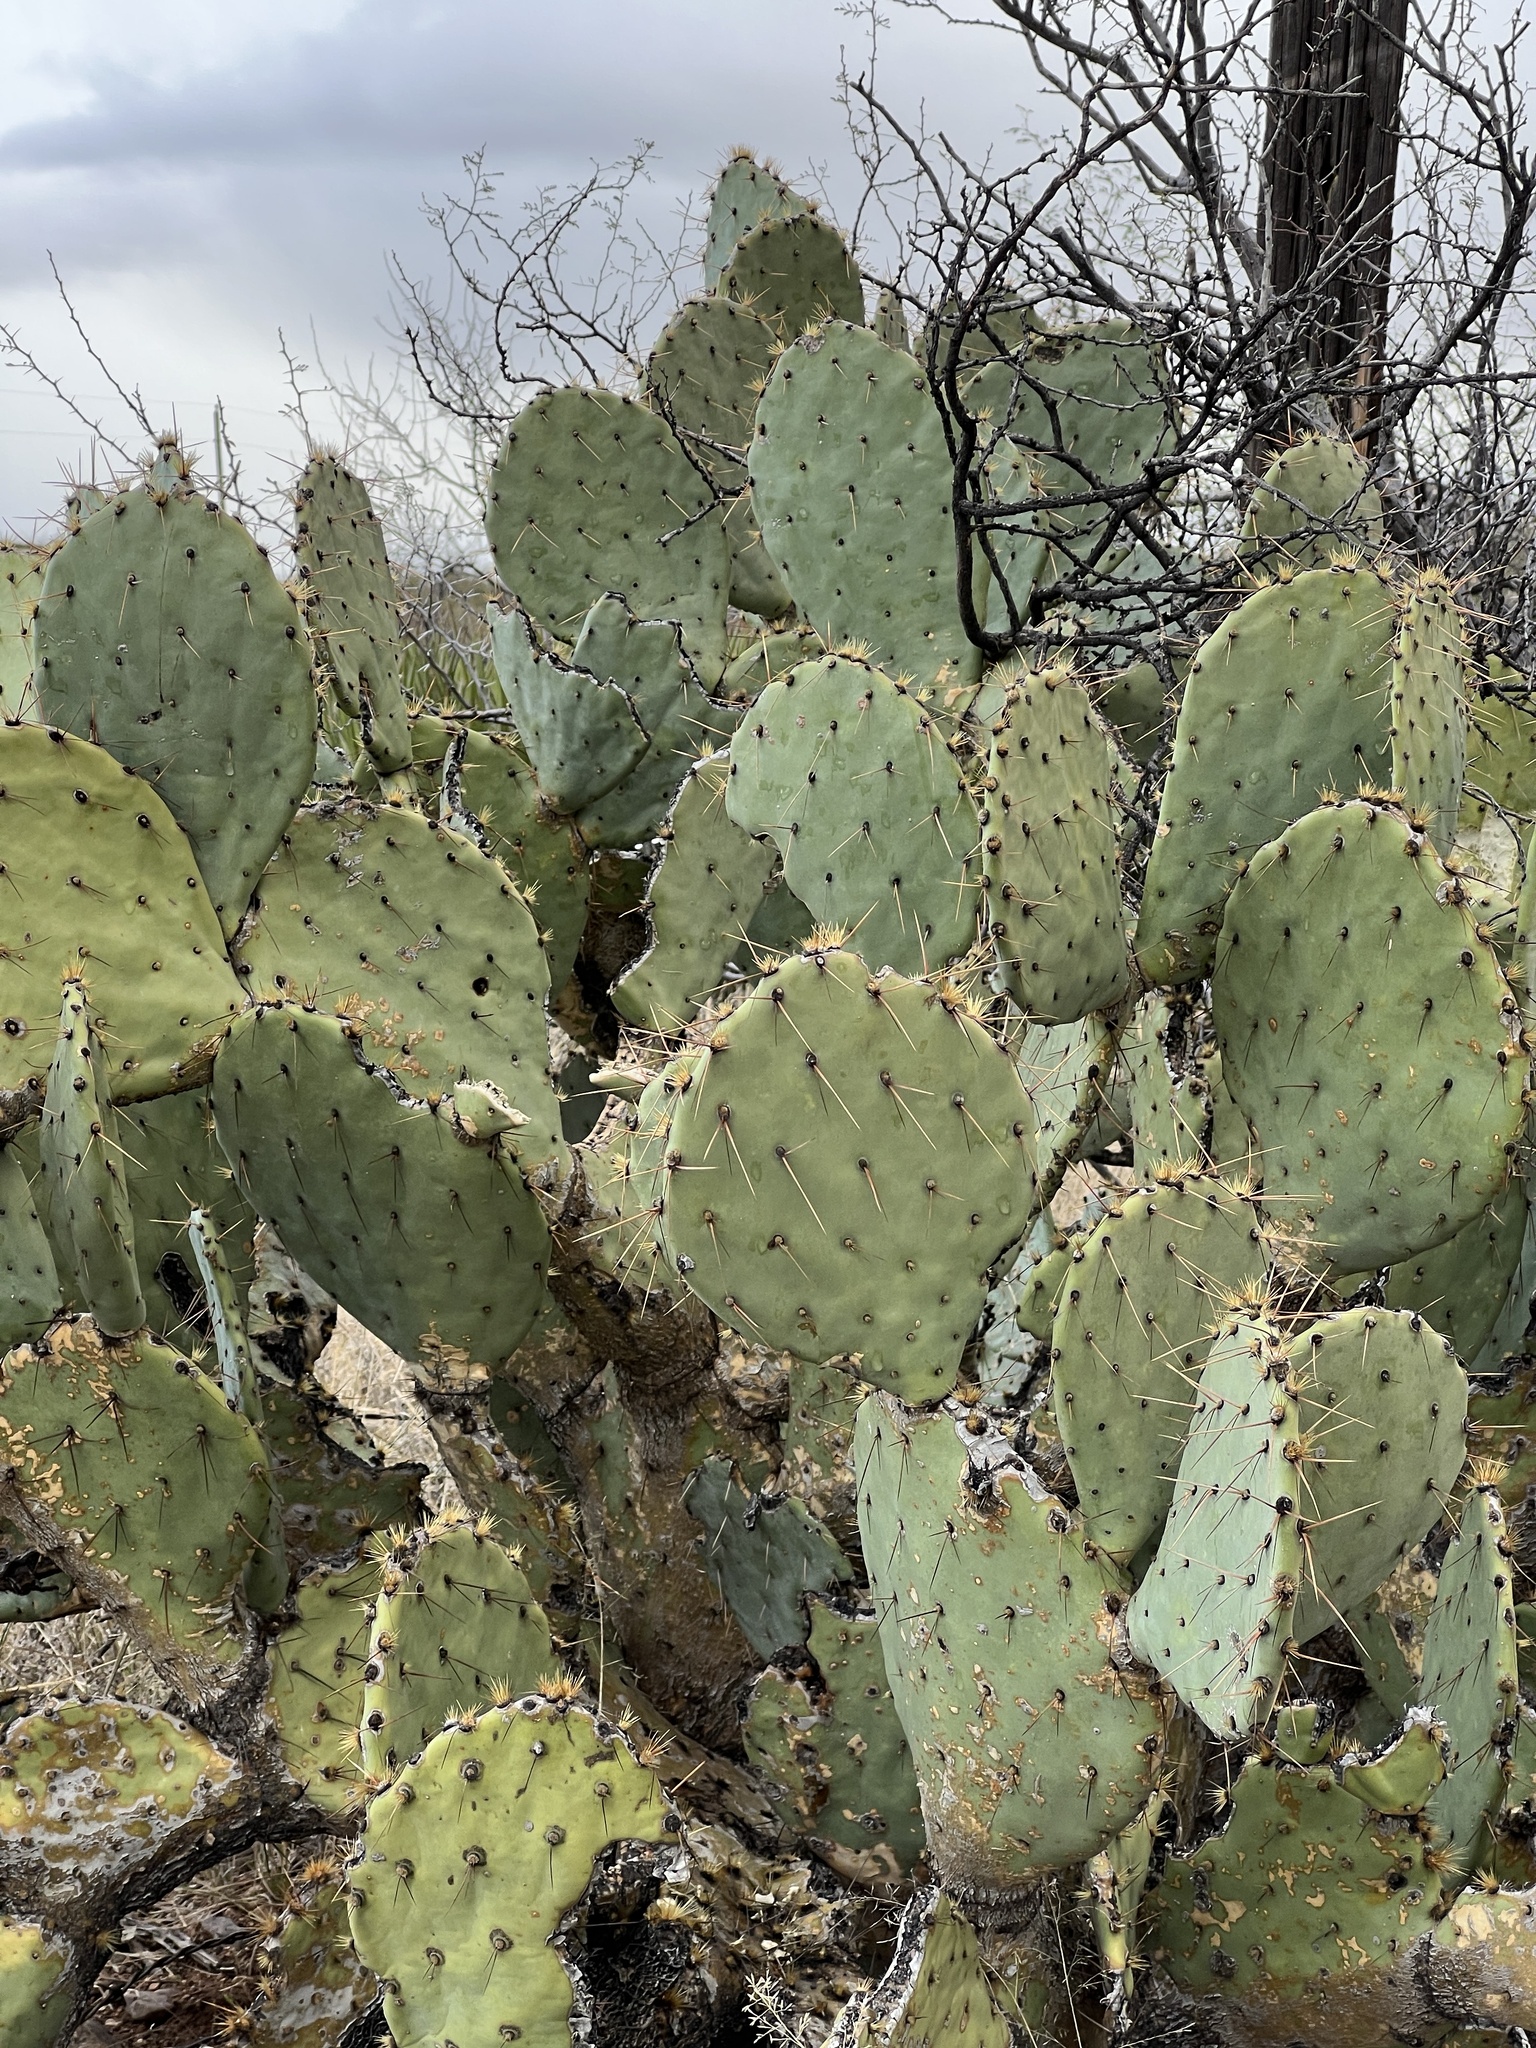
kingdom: Plantae
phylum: Tracheophyta
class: Magnoliopsida
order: Caryophyllales
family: Cactaceae
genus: Opuntia
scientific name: Opuntia engelmannii
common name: Cactus-apple
